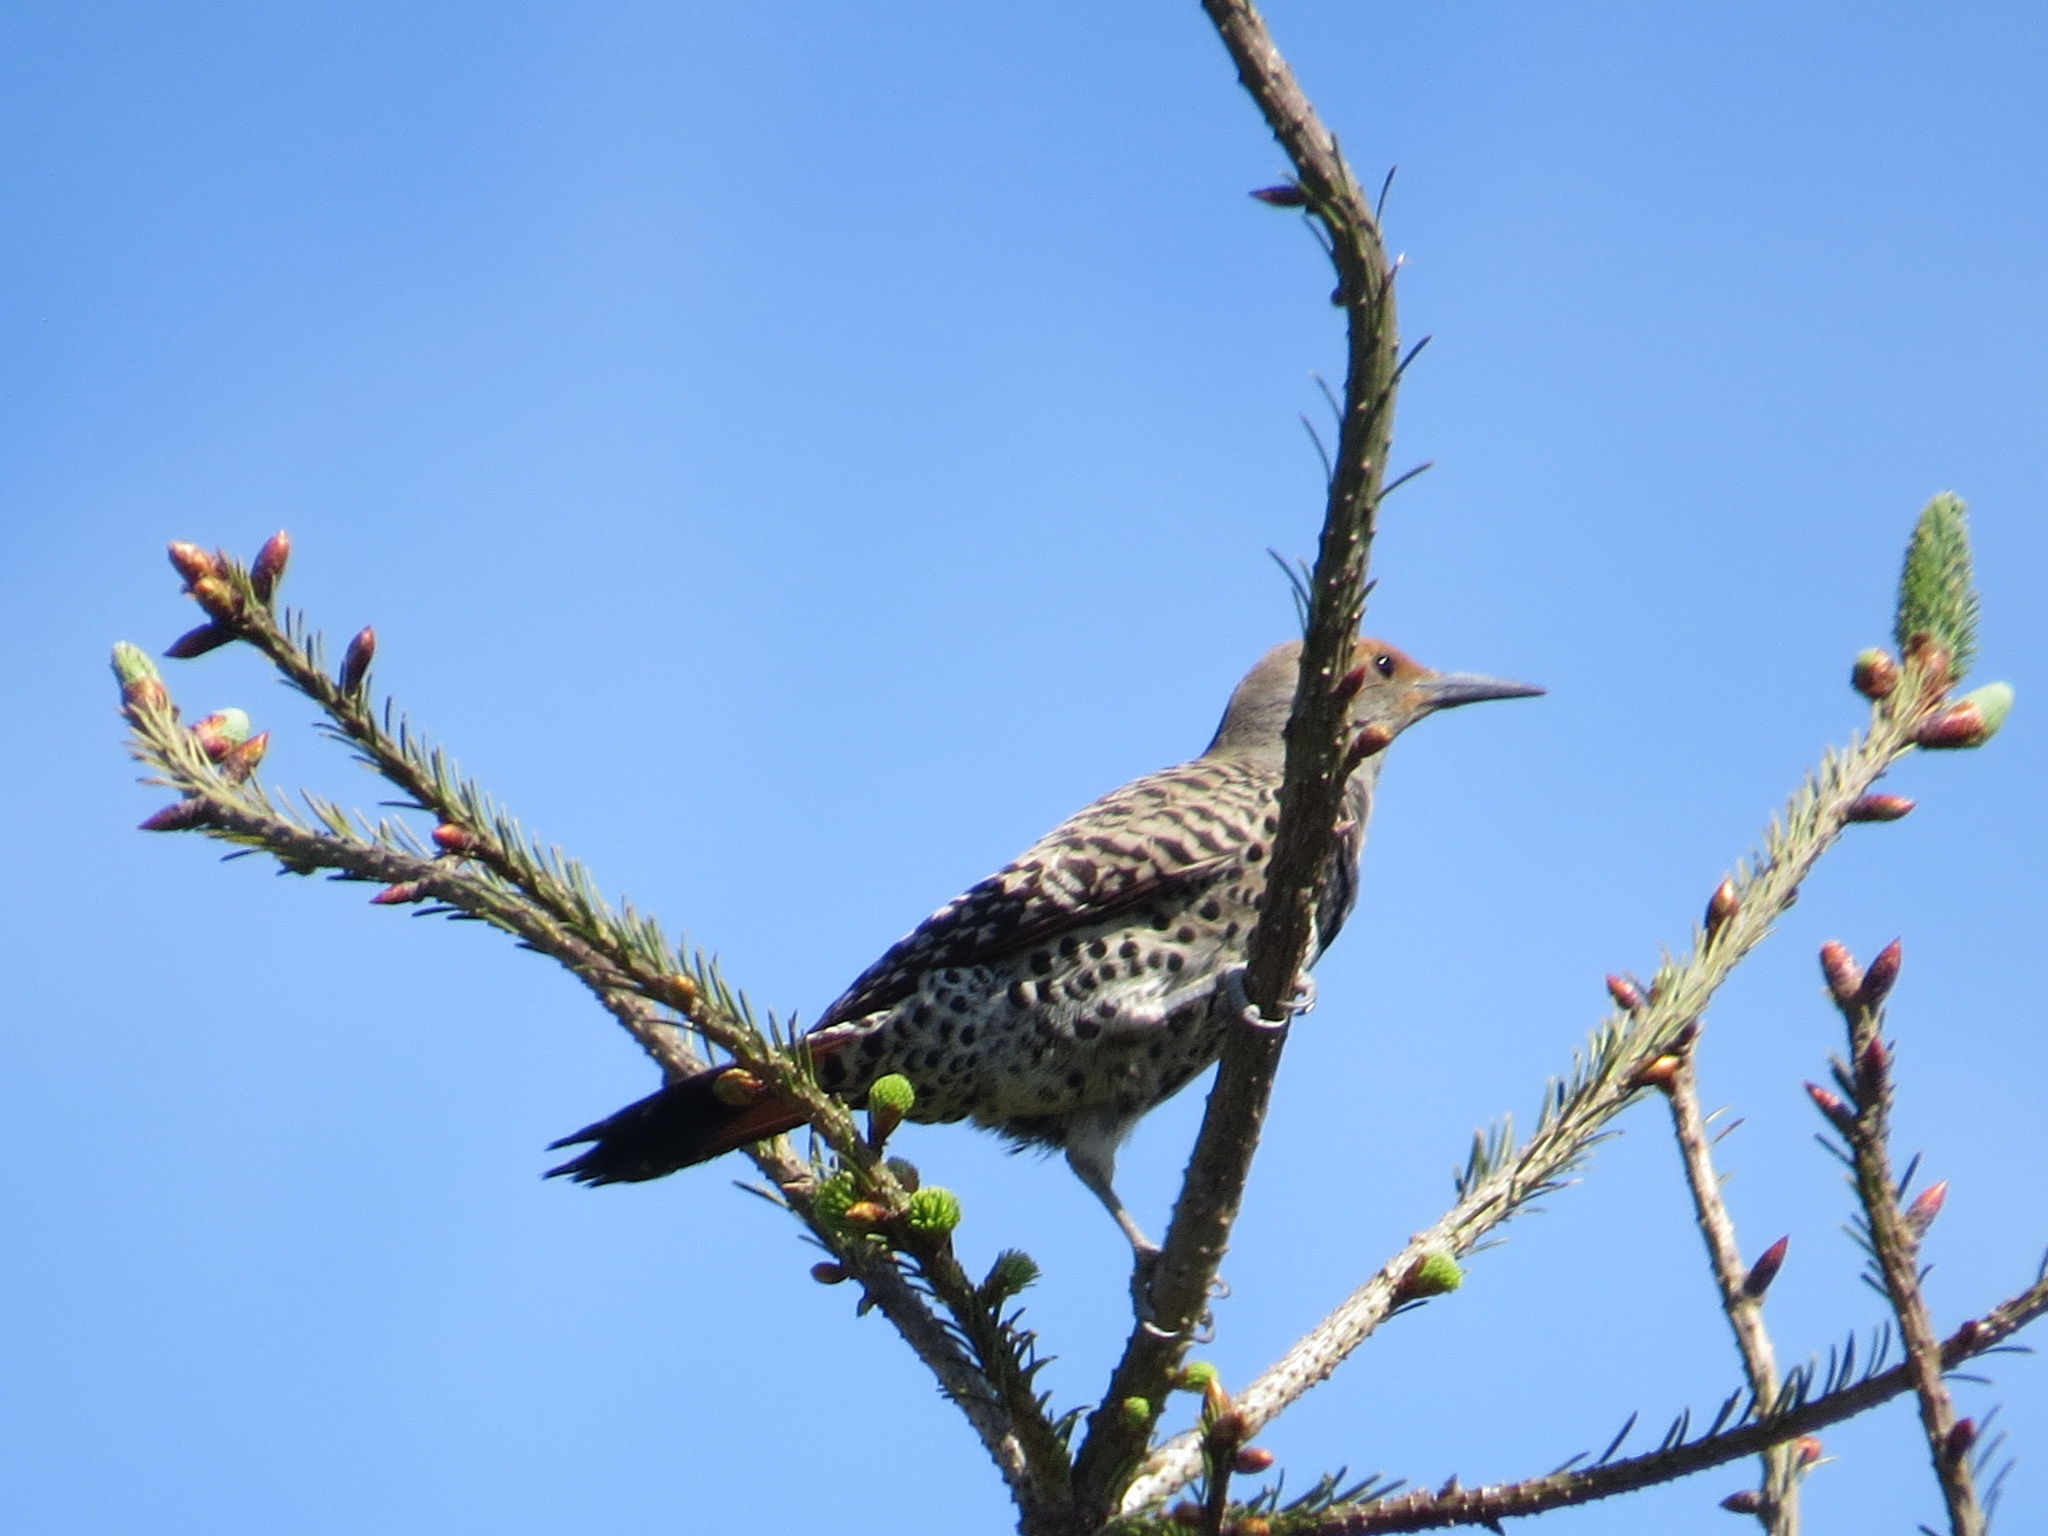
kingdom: Animalia
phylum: Chordata
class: Aves
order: Piciformes
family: Picidae
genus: Colaptes
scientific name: Colaptes auratus
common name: Northern flicker
